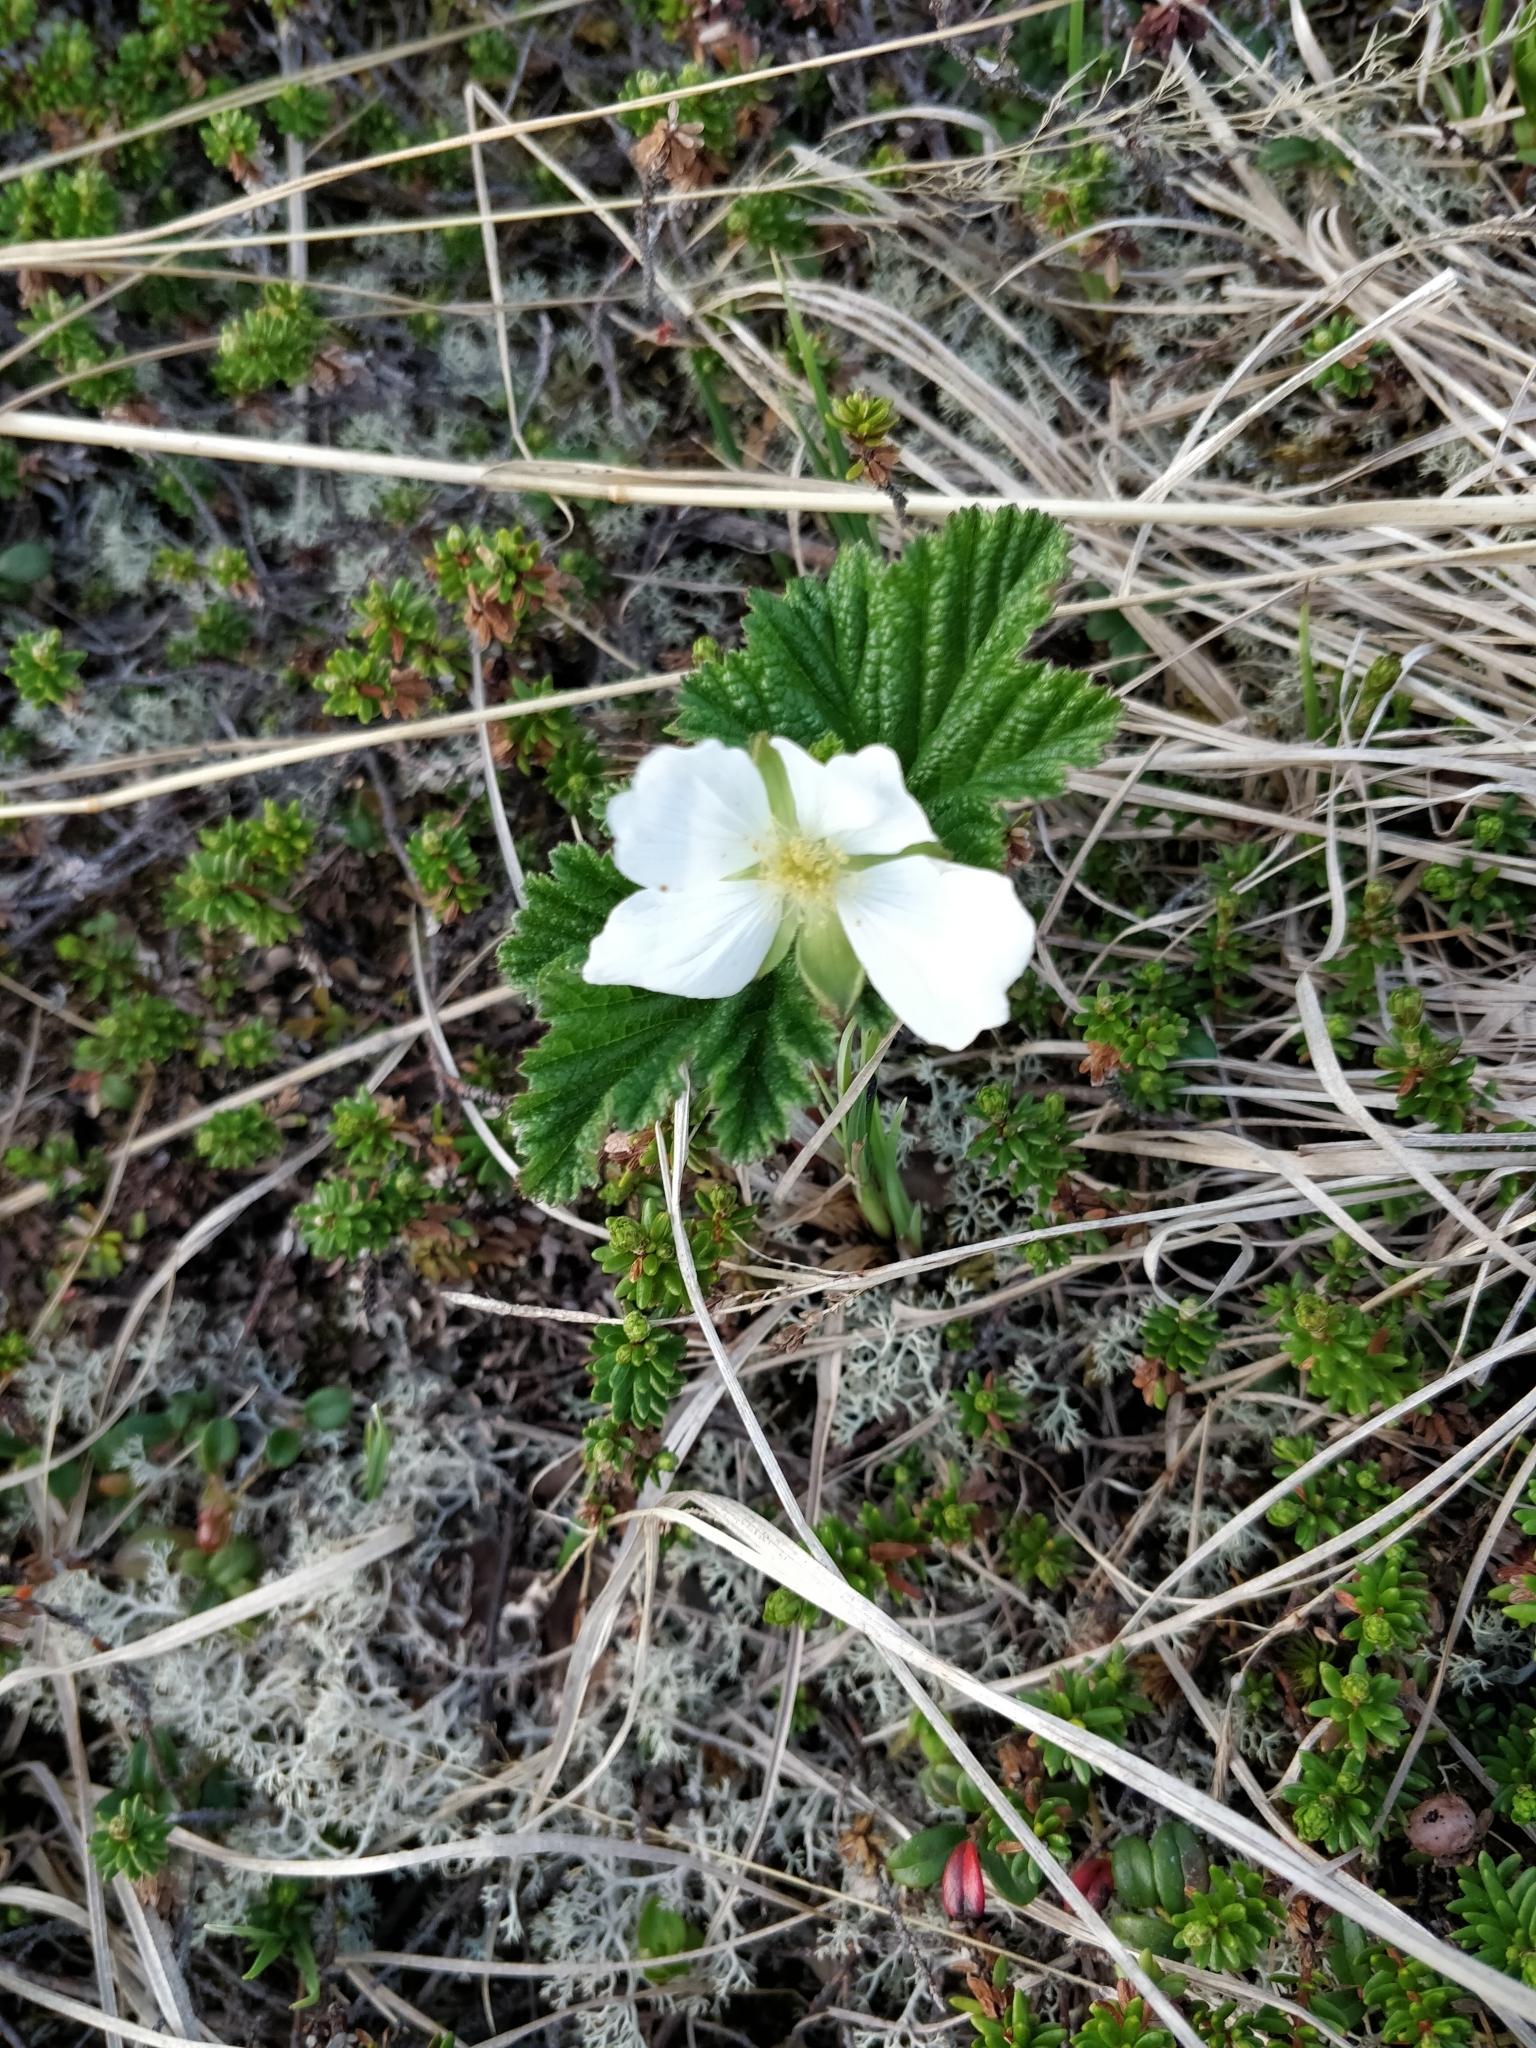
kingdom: Plantae
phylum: Tracheophyta
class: Magnoliopsida
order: Rosales
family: Rosaceae
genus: Rubus
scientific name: Rubus chamaemorus
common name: Cloudberry
